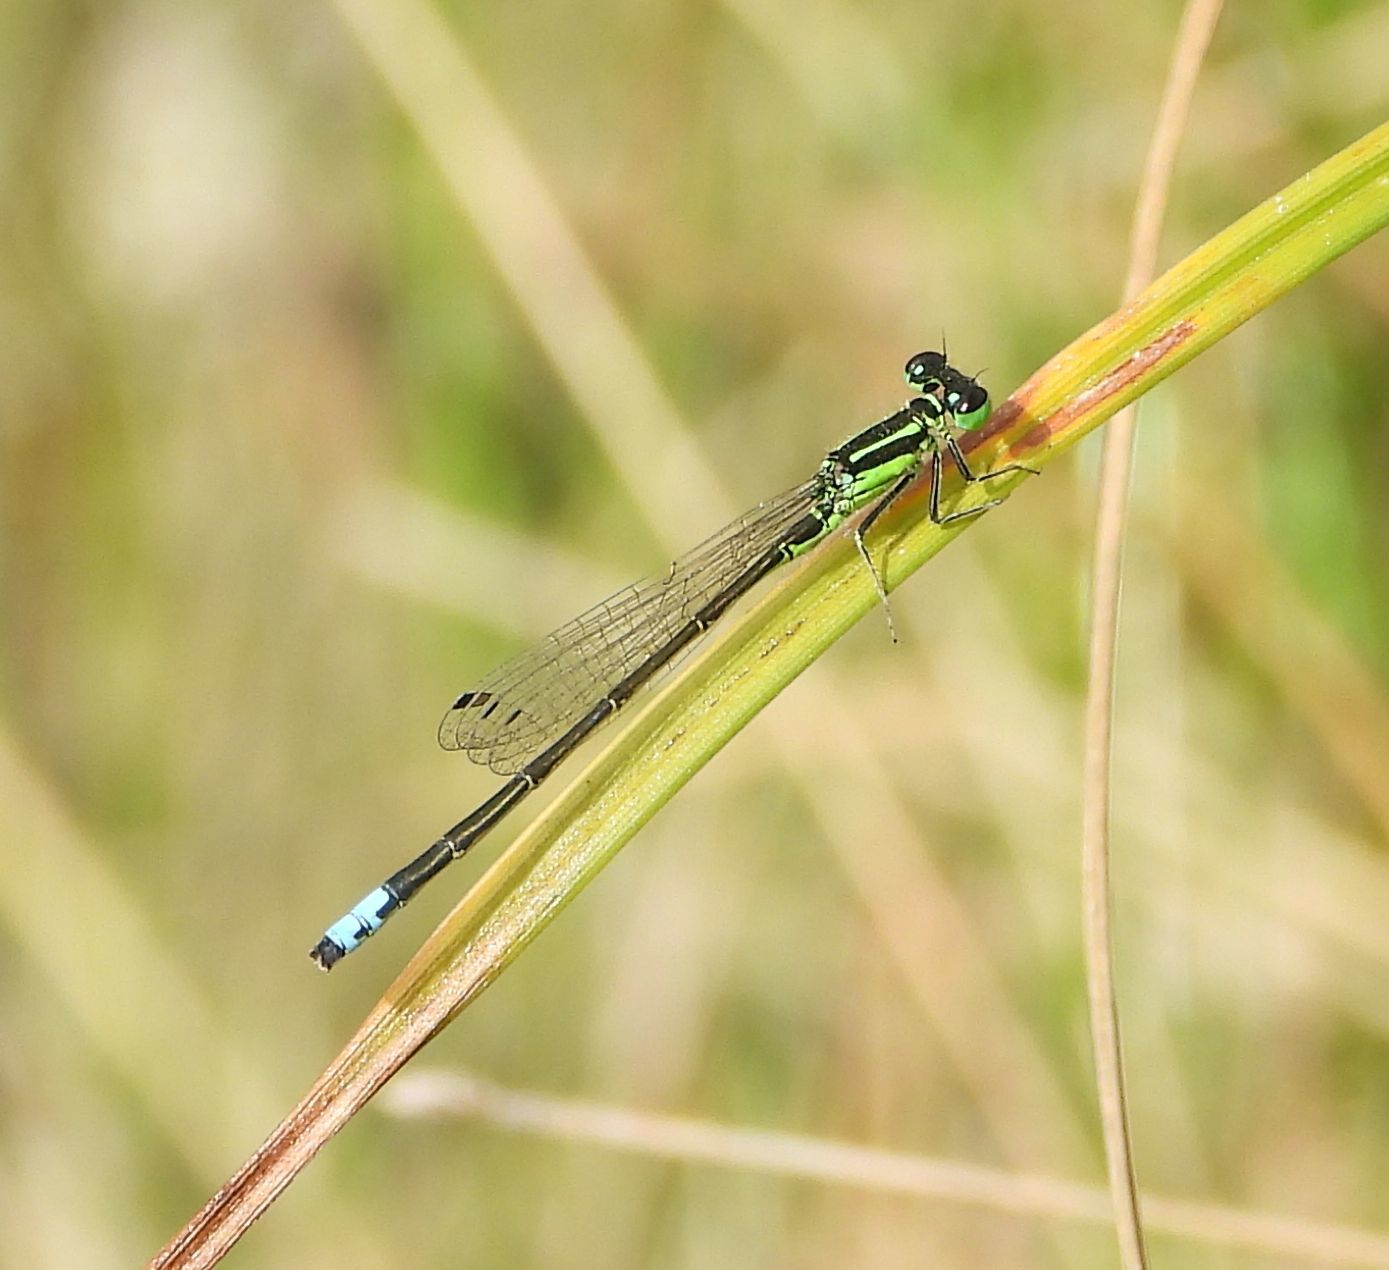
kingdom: Animalia
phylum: Arthropoda
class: Insecta
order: Odonata
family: Coenagrionidae
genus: Ischnura
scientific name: Ischnura verticalis
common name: Eastern forktail
